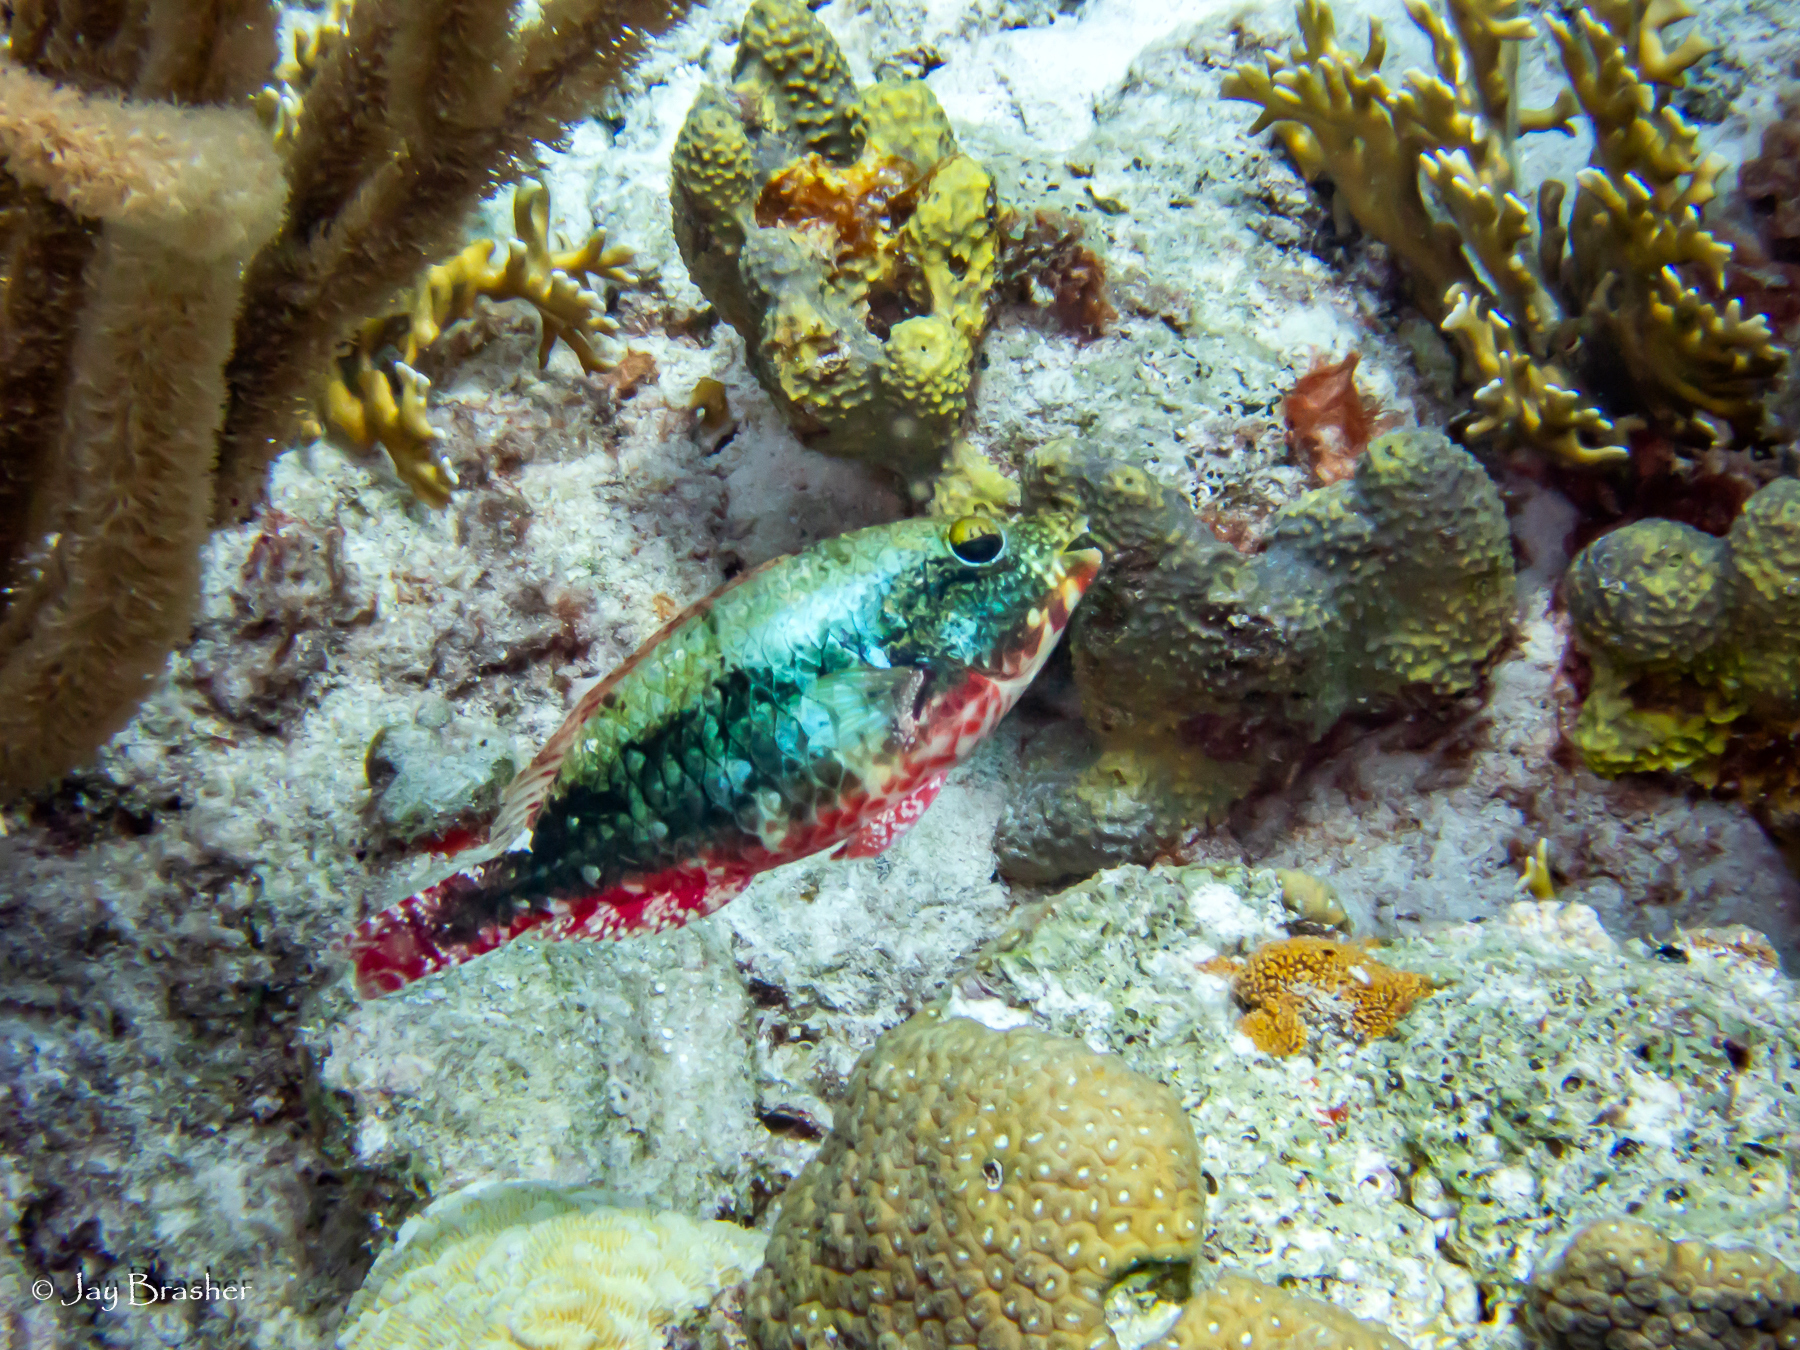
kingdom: Animalia
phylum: Cnidaria
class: Hydrozoa
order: Anthoathecata
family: Milleporidae
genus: Millepora
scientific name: Millepora alcicornis
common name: Branching fire coral
